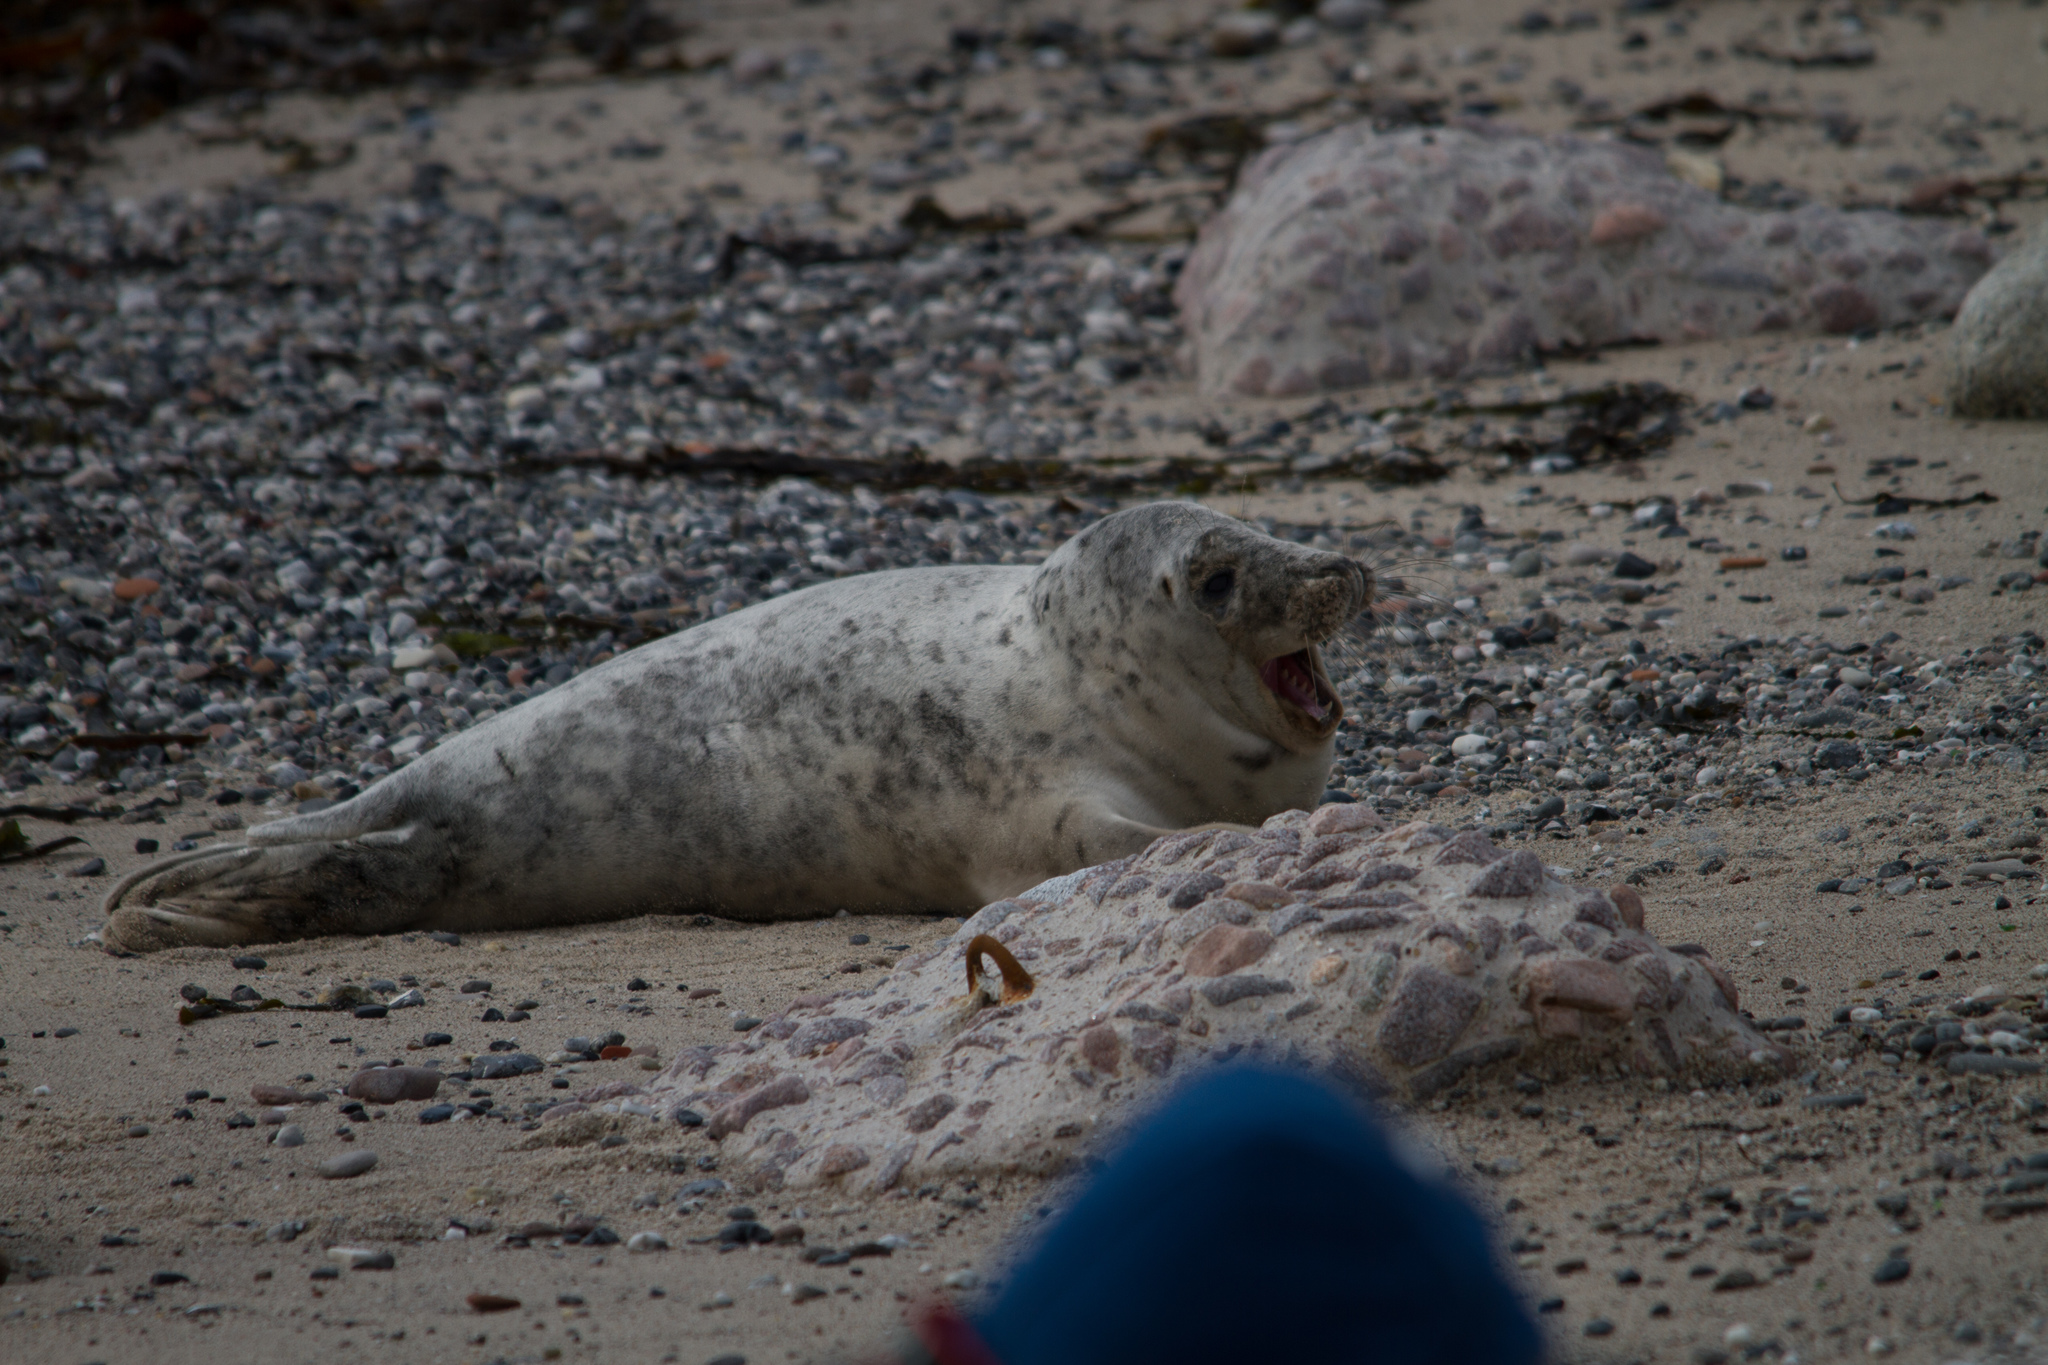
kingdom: Animalia
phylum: Chordata
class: Mammalia
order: Carnivora
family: Phocidae
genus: Halichoerus
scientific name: Halichoerus grypus
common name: Grey seal
